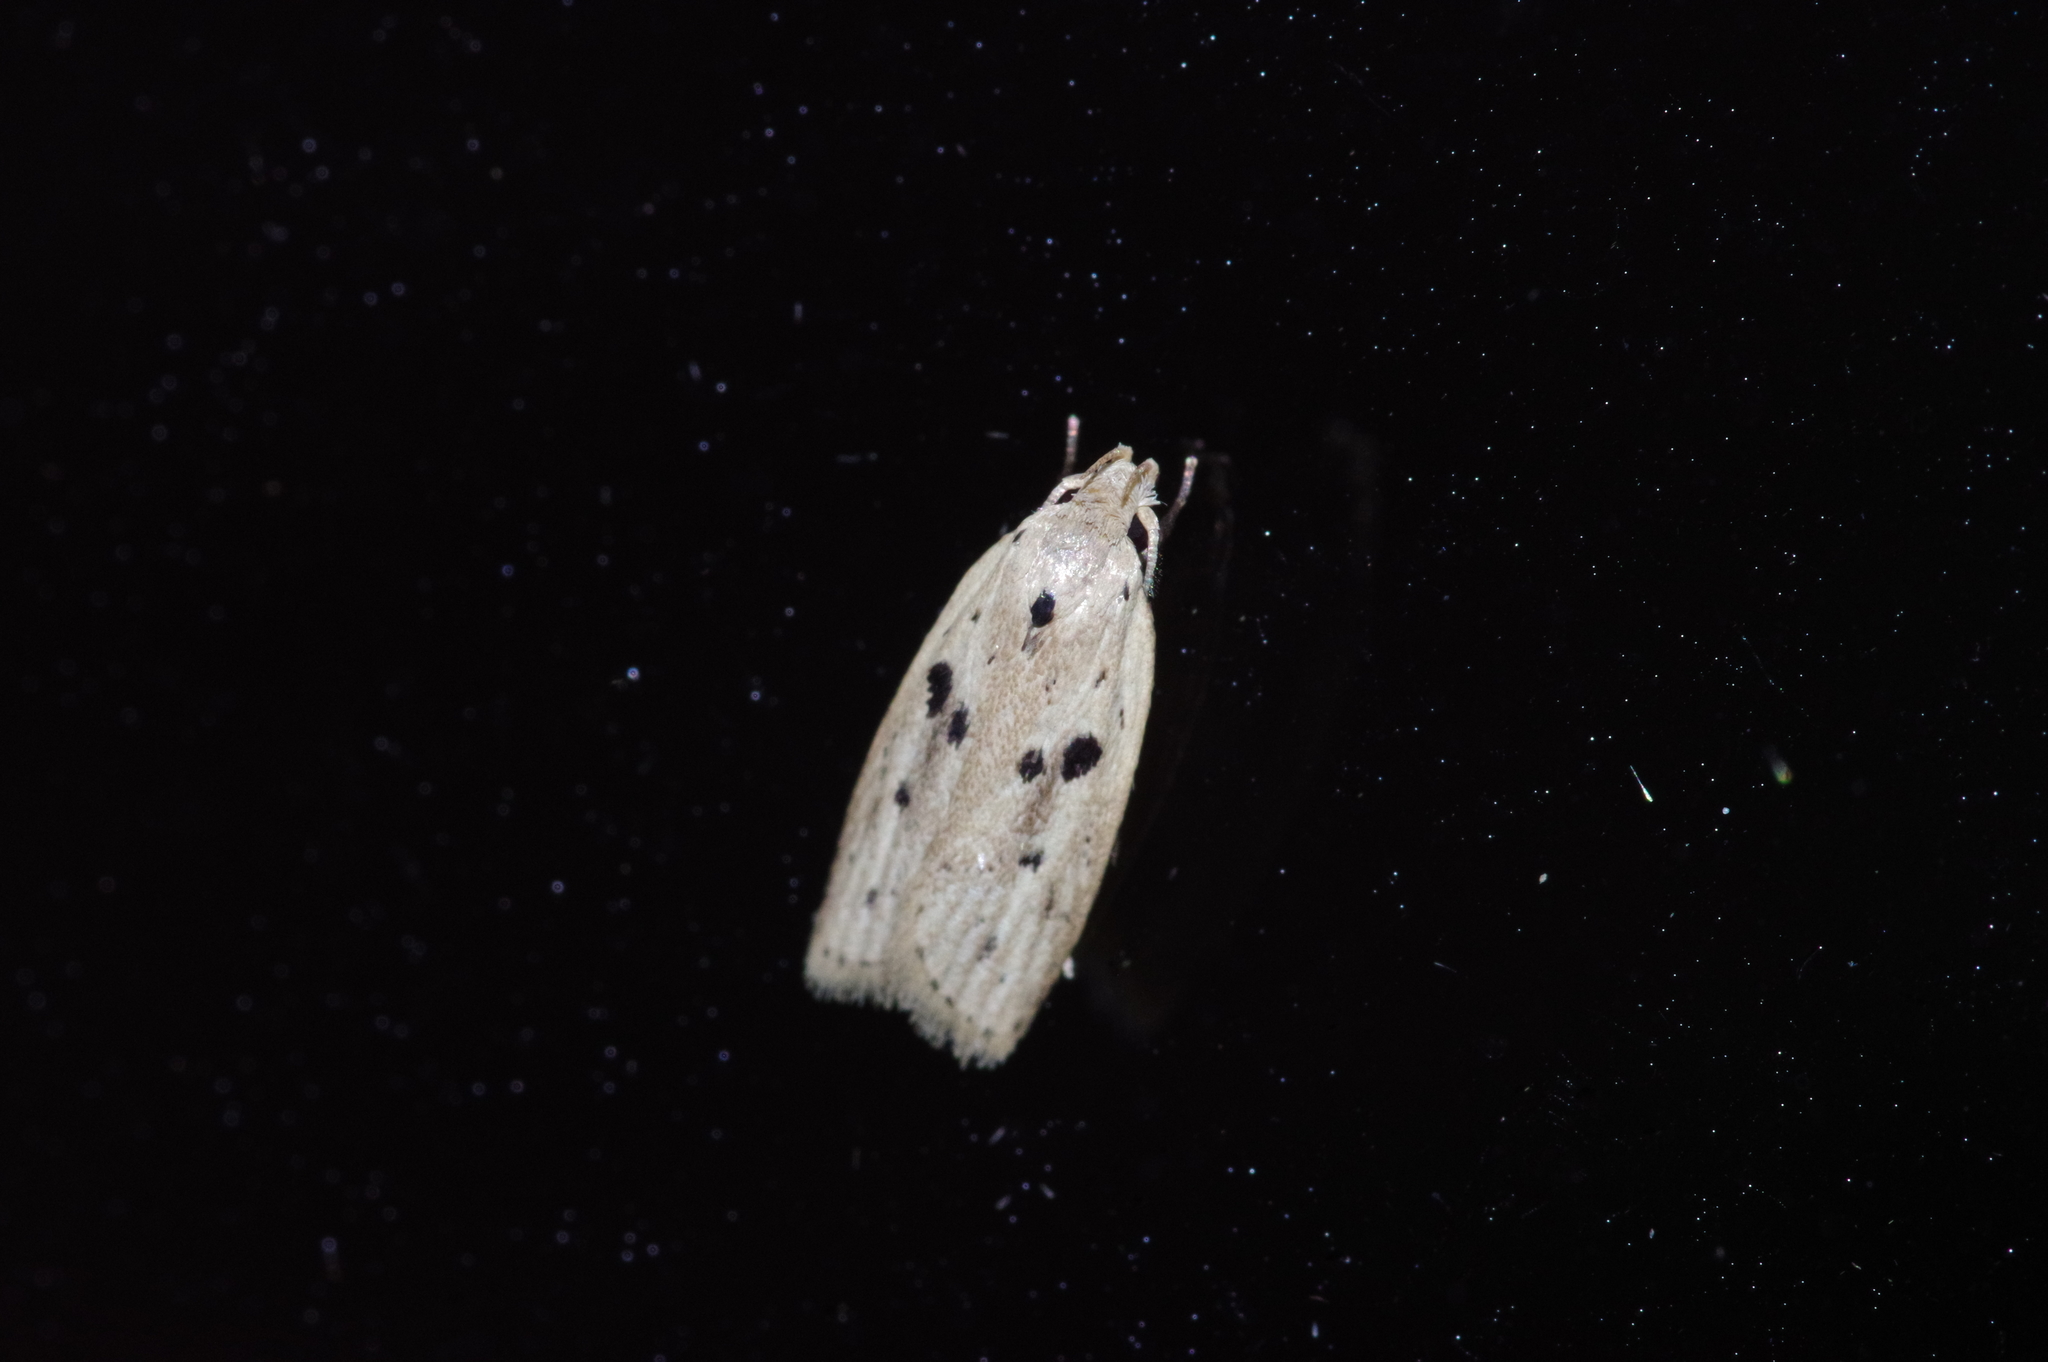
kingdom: Animalia
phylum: Arthropoda
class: Insecta
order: Lepidoptera
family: Peleopodidae
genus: Scythropiodes
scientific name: Scythropiodes issikii
